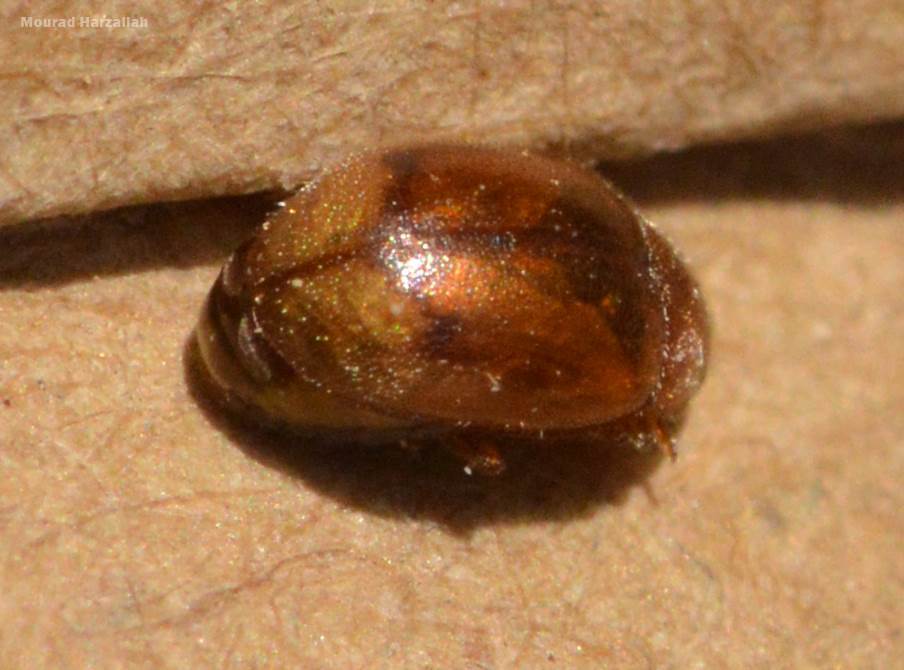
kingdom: Animalia
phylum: Arthropoda
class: Insecta
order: Coleoptera
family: Coccinellidae
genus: Rhyzobius
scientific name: Rhyzobius chrysomeloides
